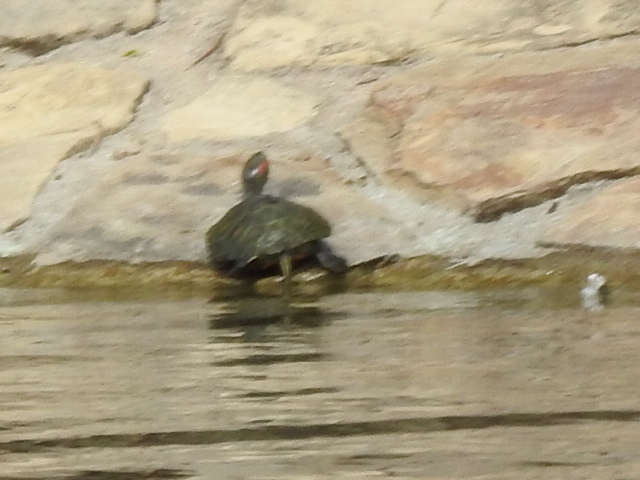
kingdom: Animalia
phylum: Chordata
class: Testudines
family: Emydidae
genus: Trachemys
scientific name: Trachemys scripta
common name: Slider
